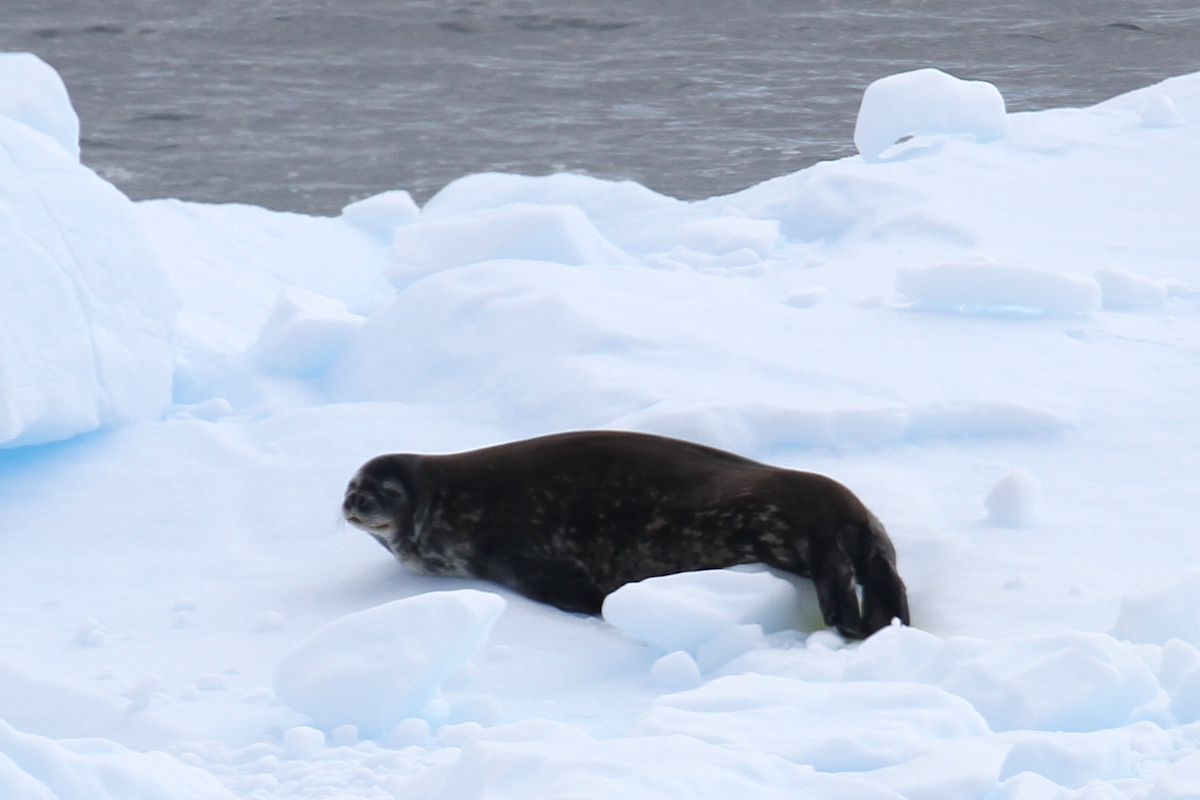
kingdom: Animalia
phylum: Chordata
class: Mammalia
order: Carnivora
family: Phocidae
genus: Leptonychotes
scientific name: Leptonychotes weddellii
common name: Weddell seal
